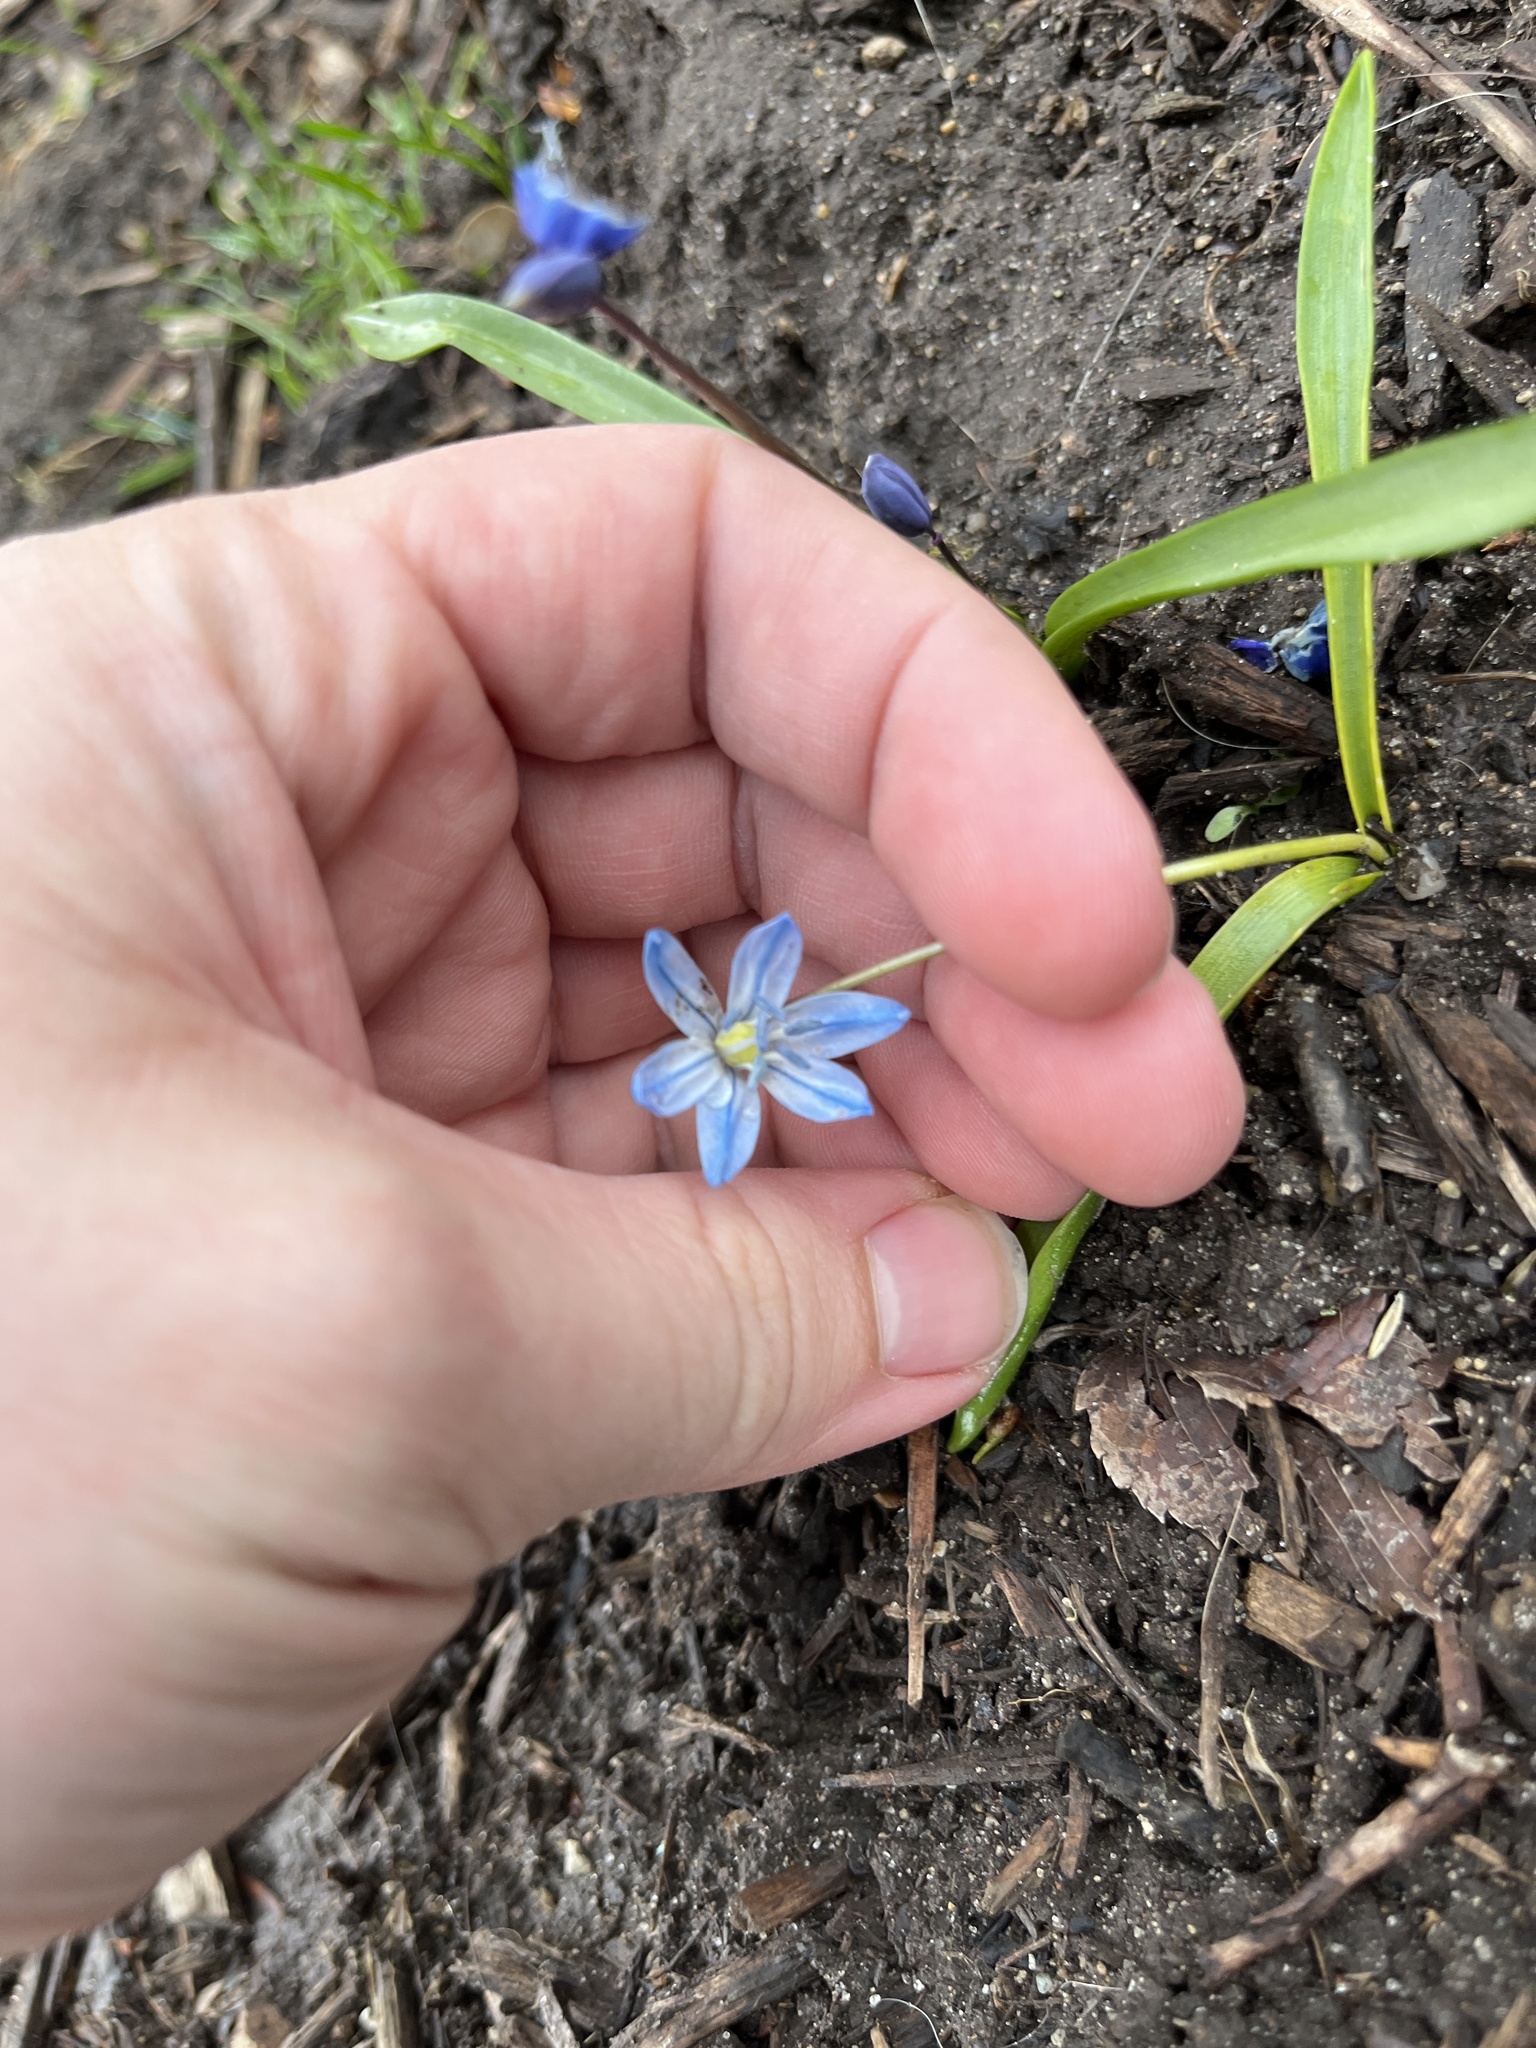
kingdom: Plantae
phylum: Tracheophyta
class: Liliopsida
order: Asparagales
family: Asparagaceae
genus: Scilla
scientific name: Scilla siberica
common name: Siberian squill
